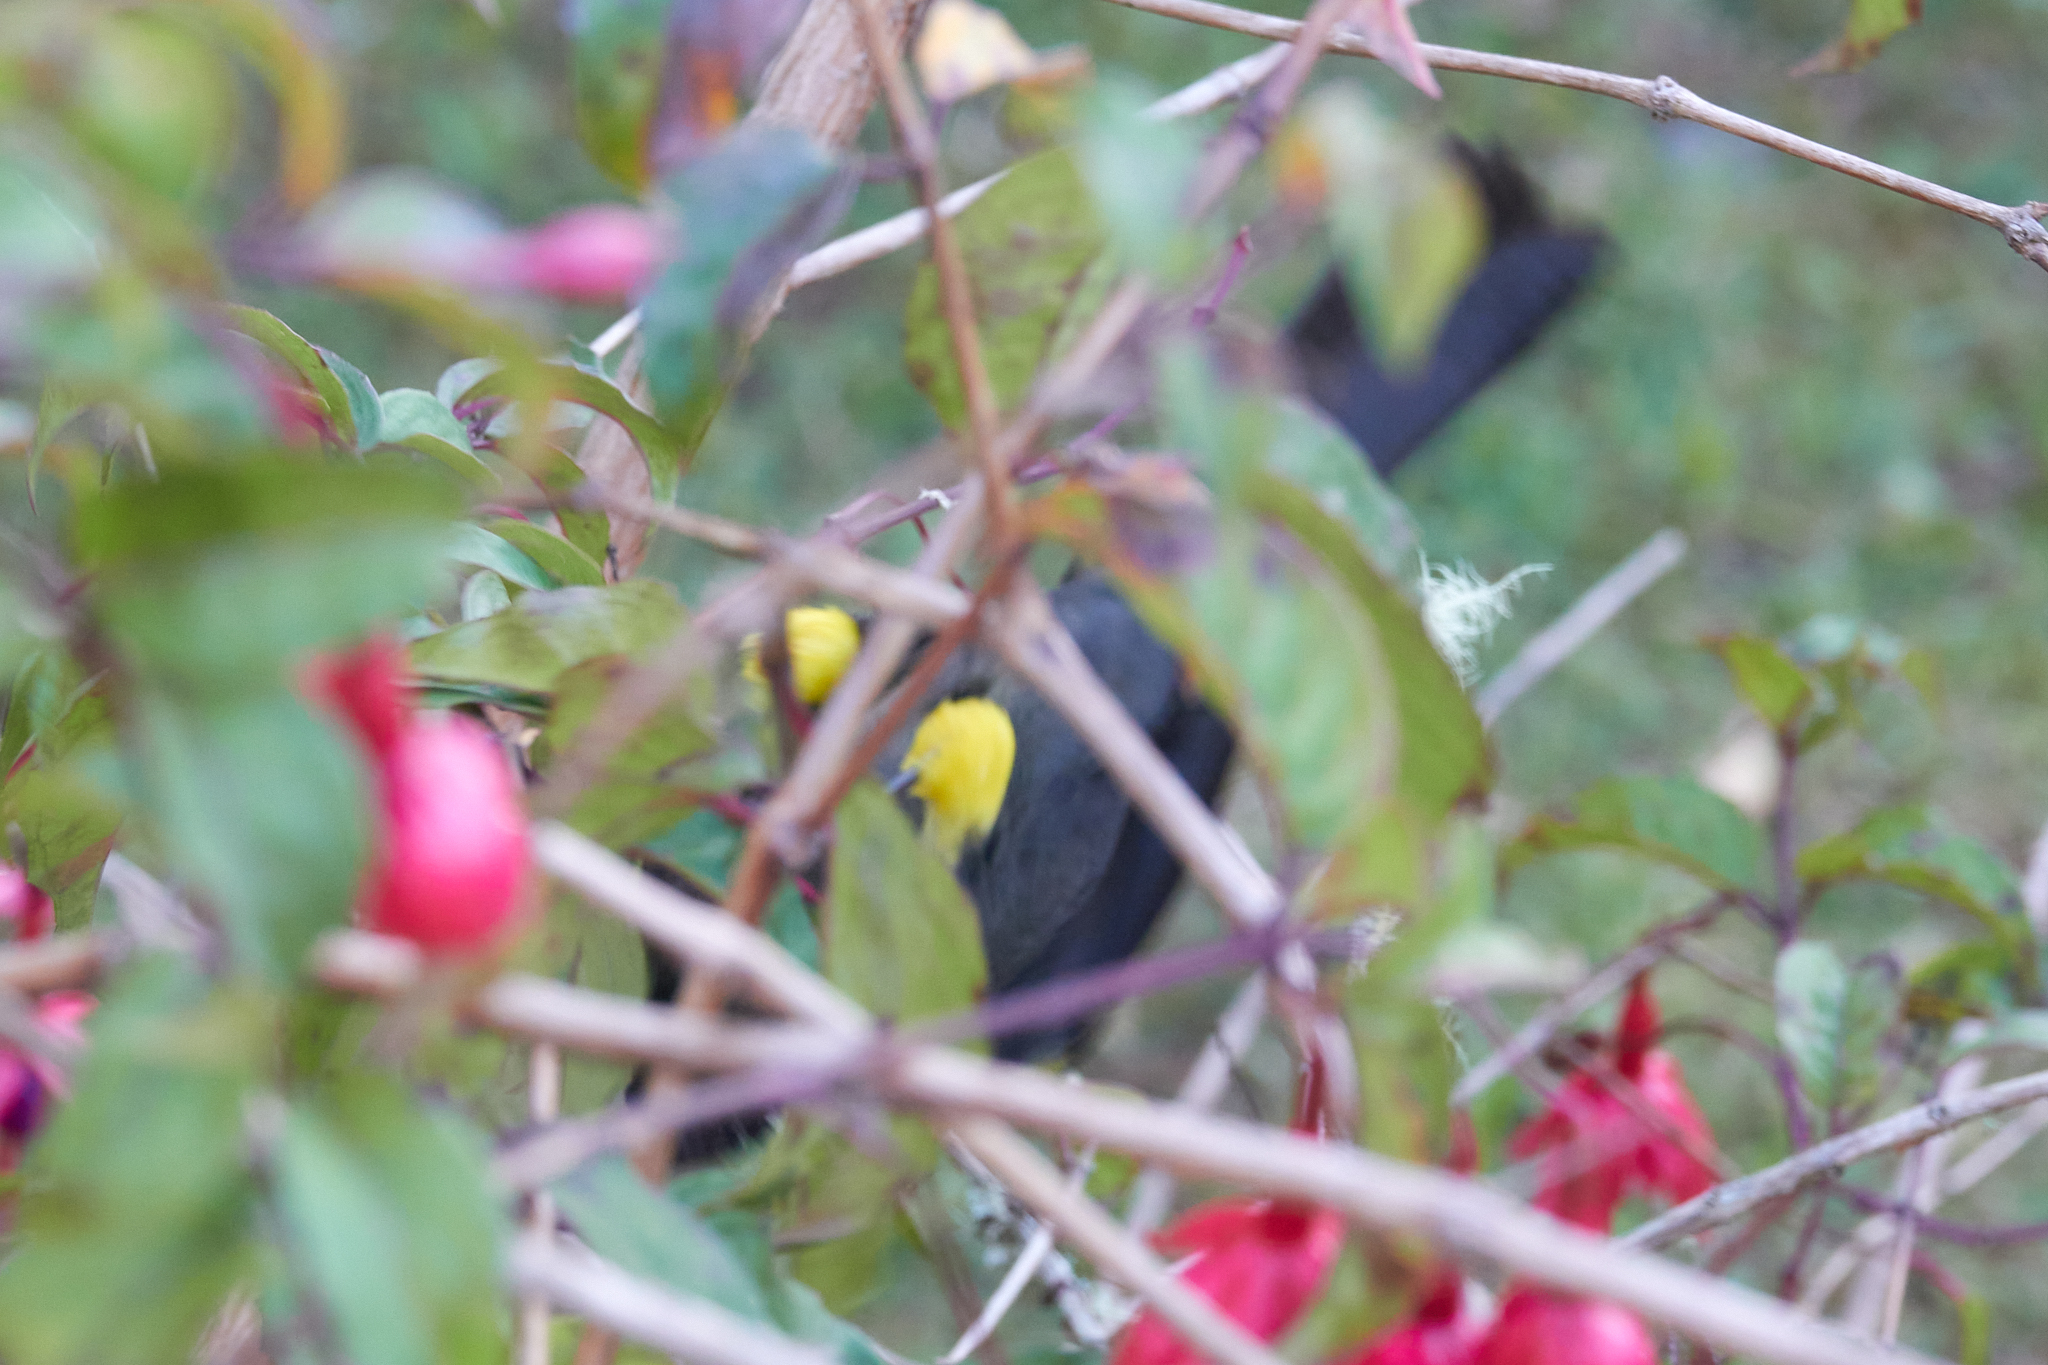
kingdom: Animalia
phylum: Chordata
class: Aves
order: Passeriformes
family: Passerellidae
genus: Atlapetes
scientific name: Atlapetes tibialis
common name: Yellow-thighed brushfinch
